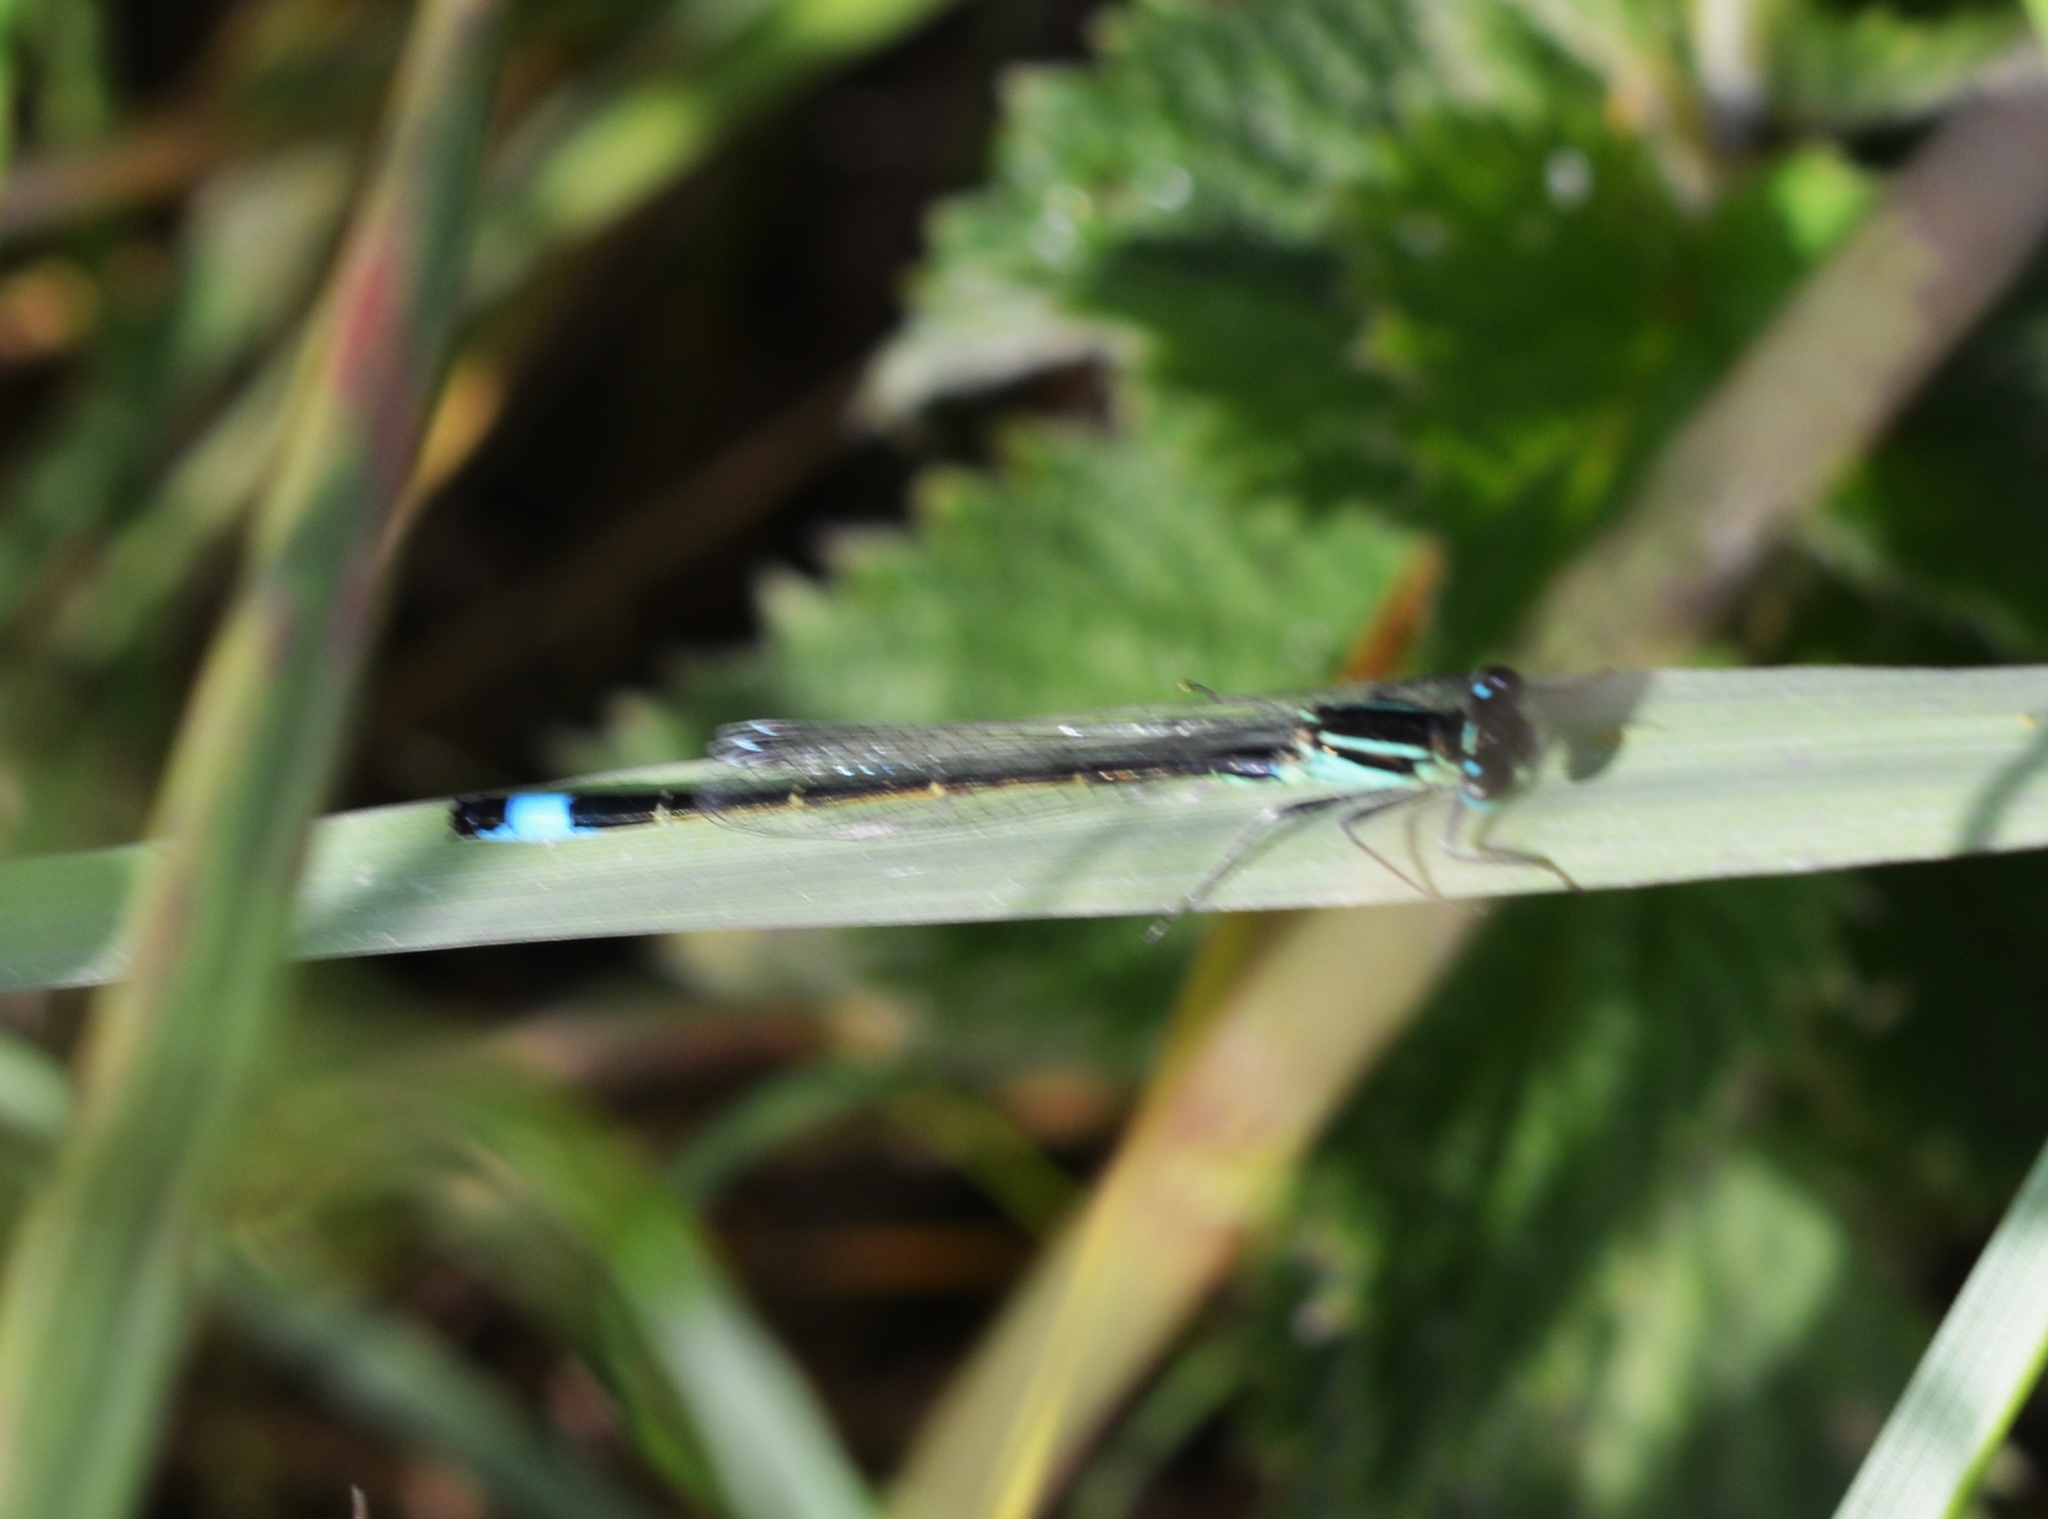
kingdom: Animalia
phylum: Arthropoda
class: Insecta
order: Odonata
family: Coenagrionidae
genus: Ischnura
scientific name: Ischnura elegans
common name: Blue-tailed damselfly
